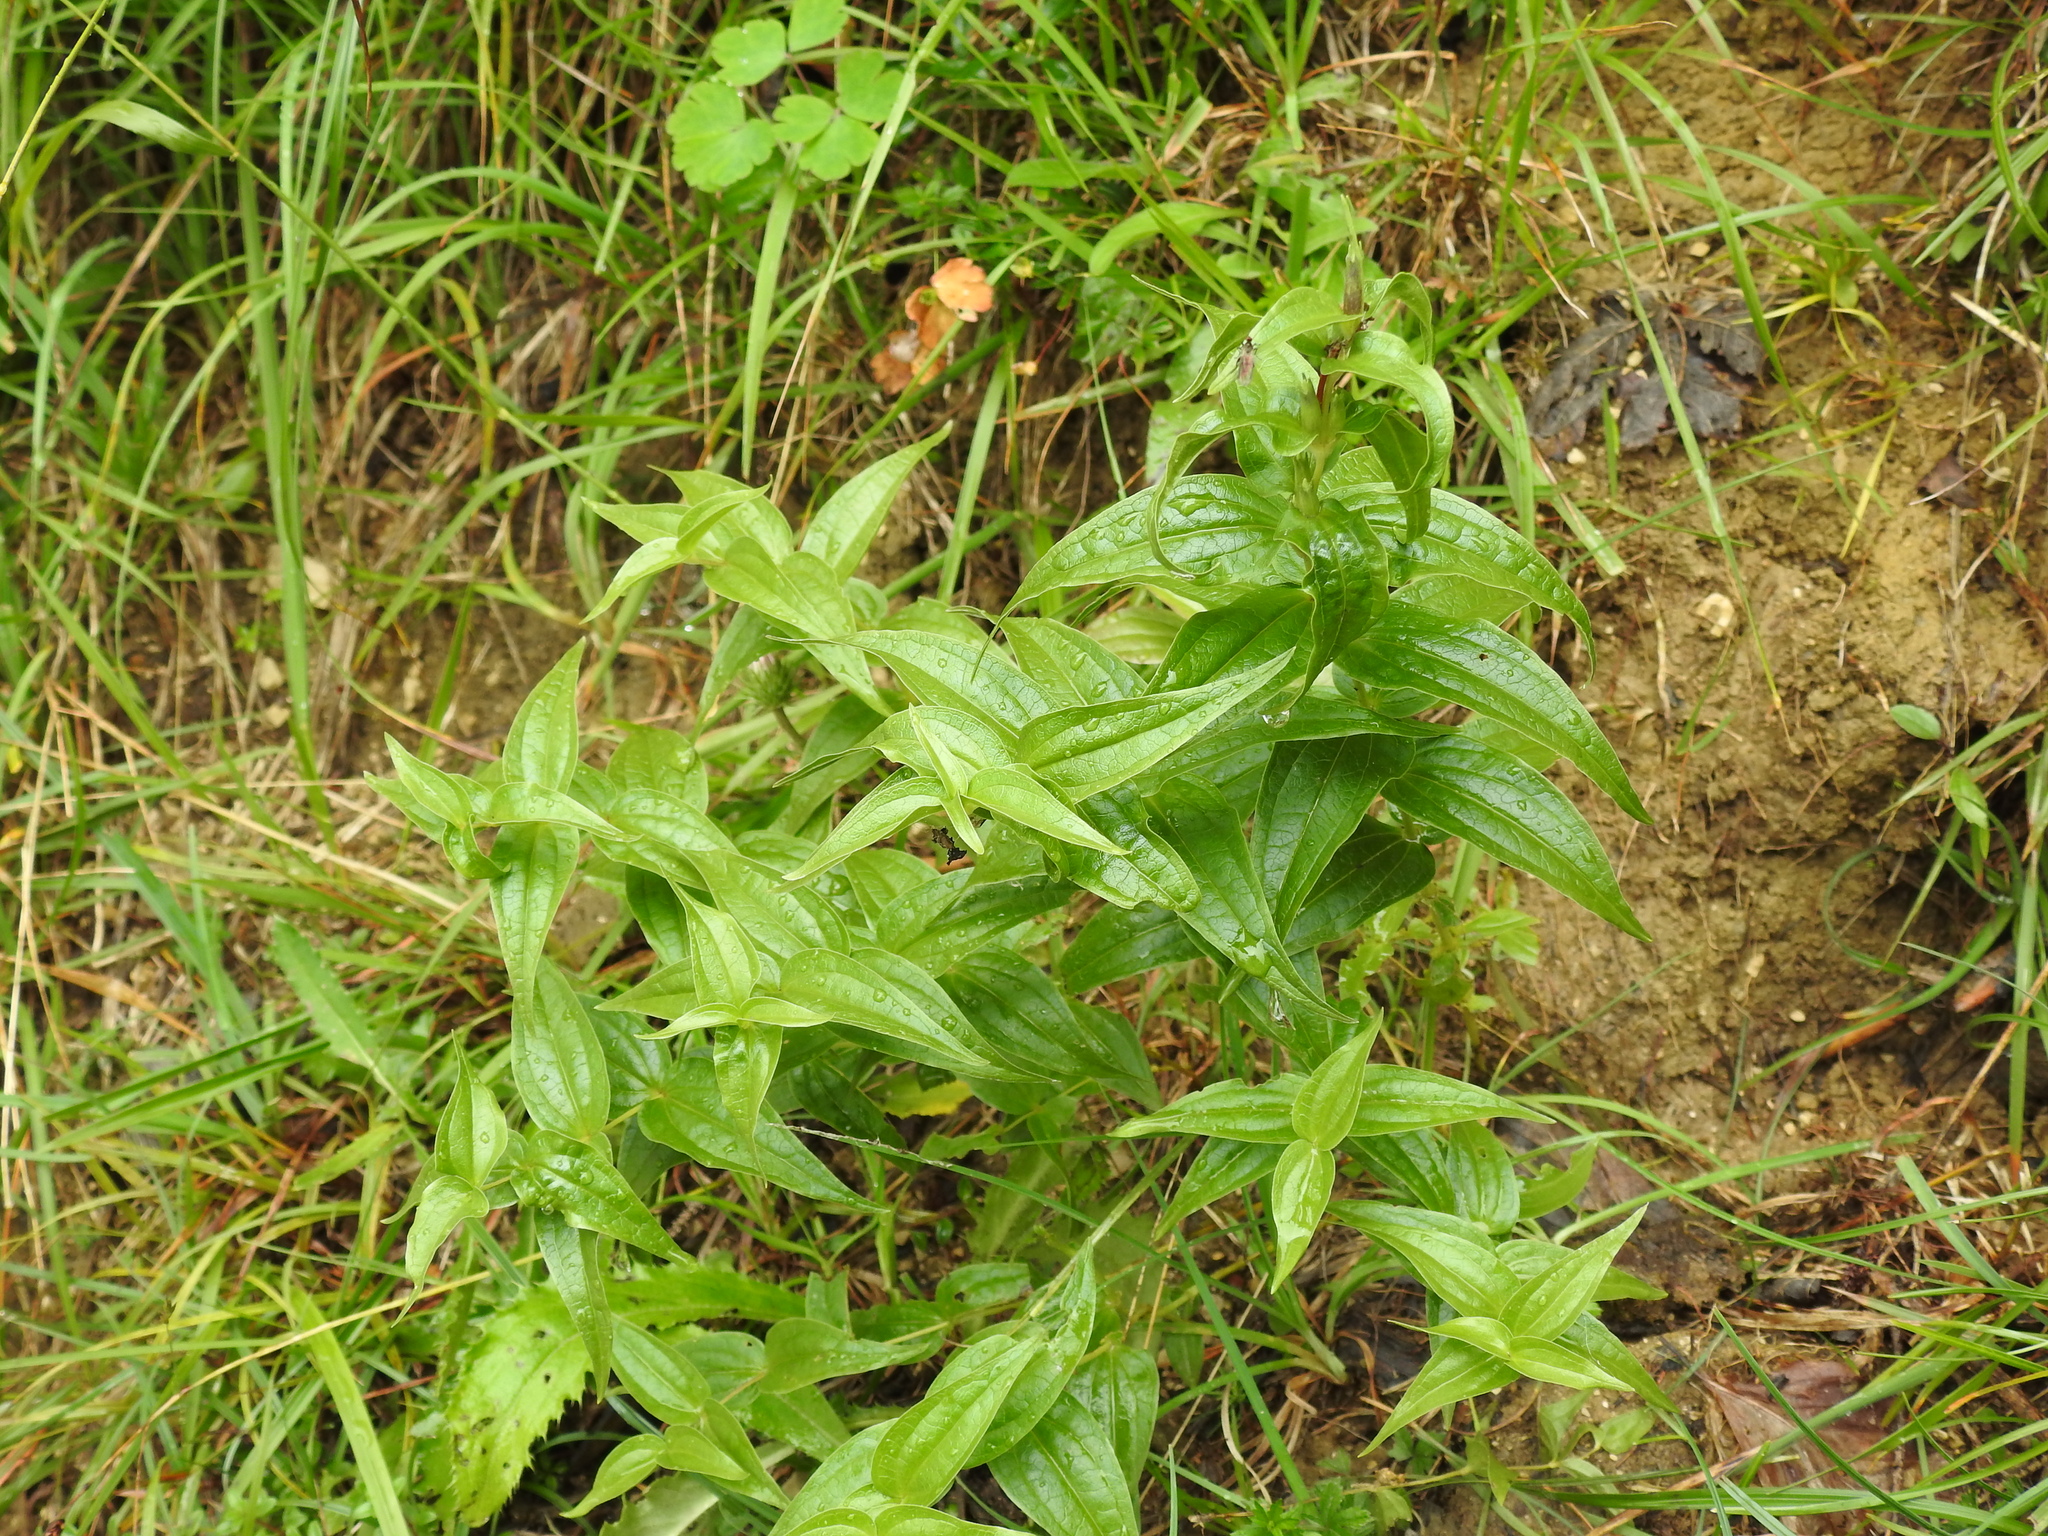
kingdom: Plantae
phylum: Tracheophyta
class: Magnoliopsida
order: Gentianales
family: Gentianaceae
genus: Gentiana
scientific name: Gentiana asclepiadea
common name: Willow gentian
